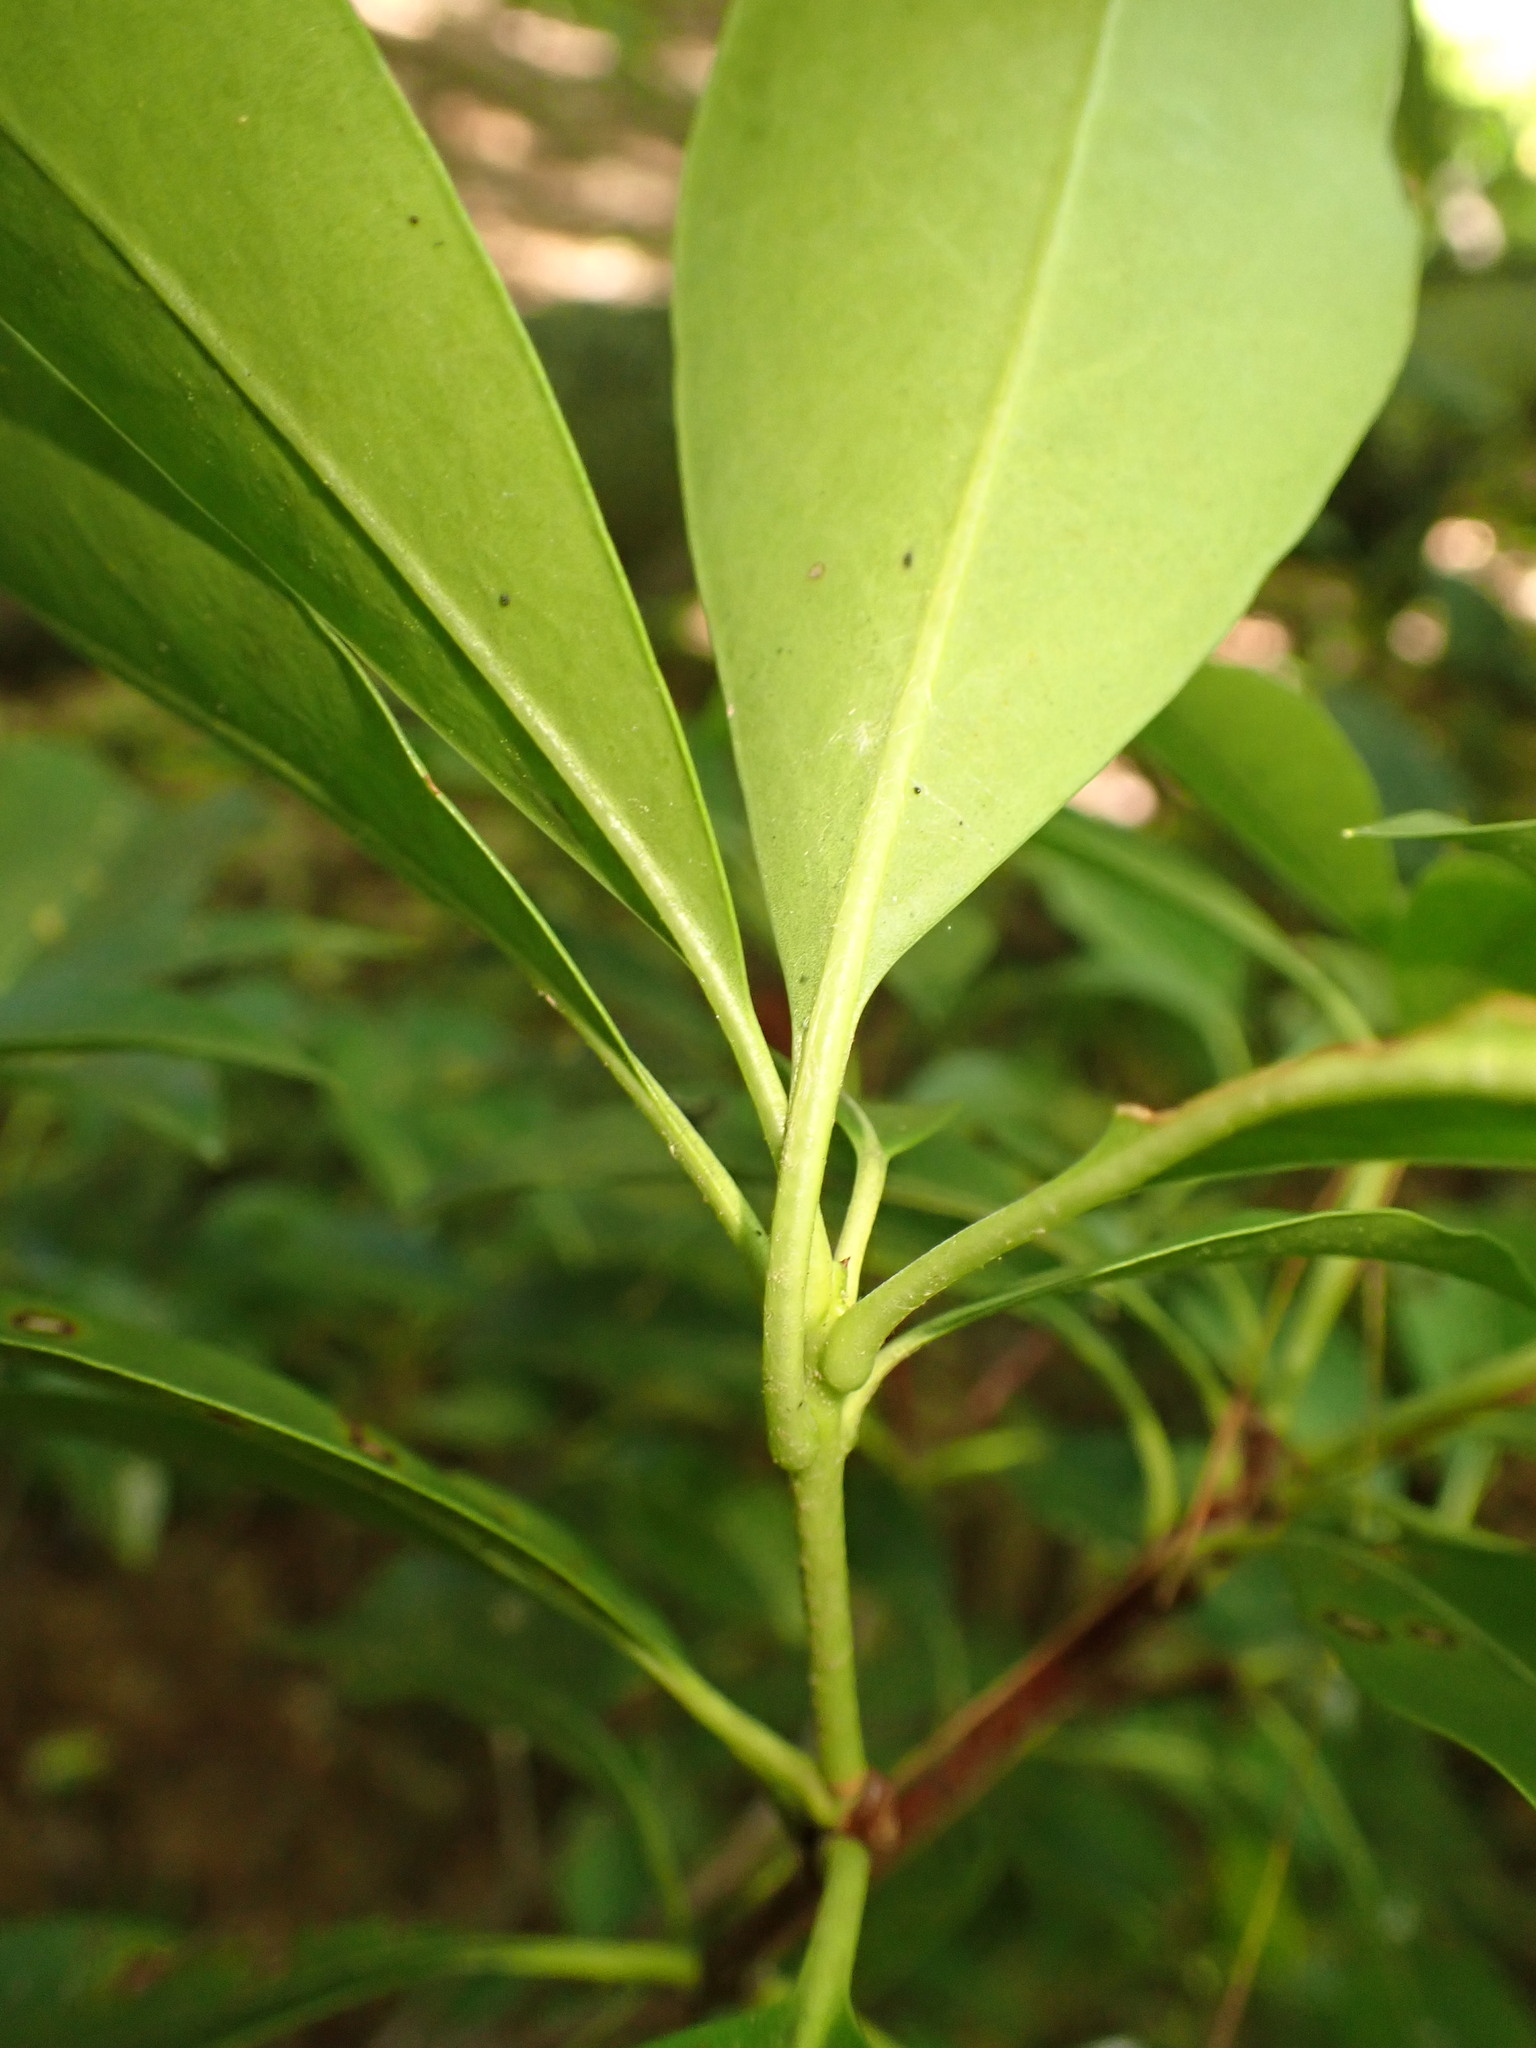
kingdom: Plantae
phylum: Tracheophyta
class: Magnoliopsida
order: Ericales
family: Ericaceae
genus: Kalmia
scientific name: Kalmia latifolia
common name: Mountain-laurel
